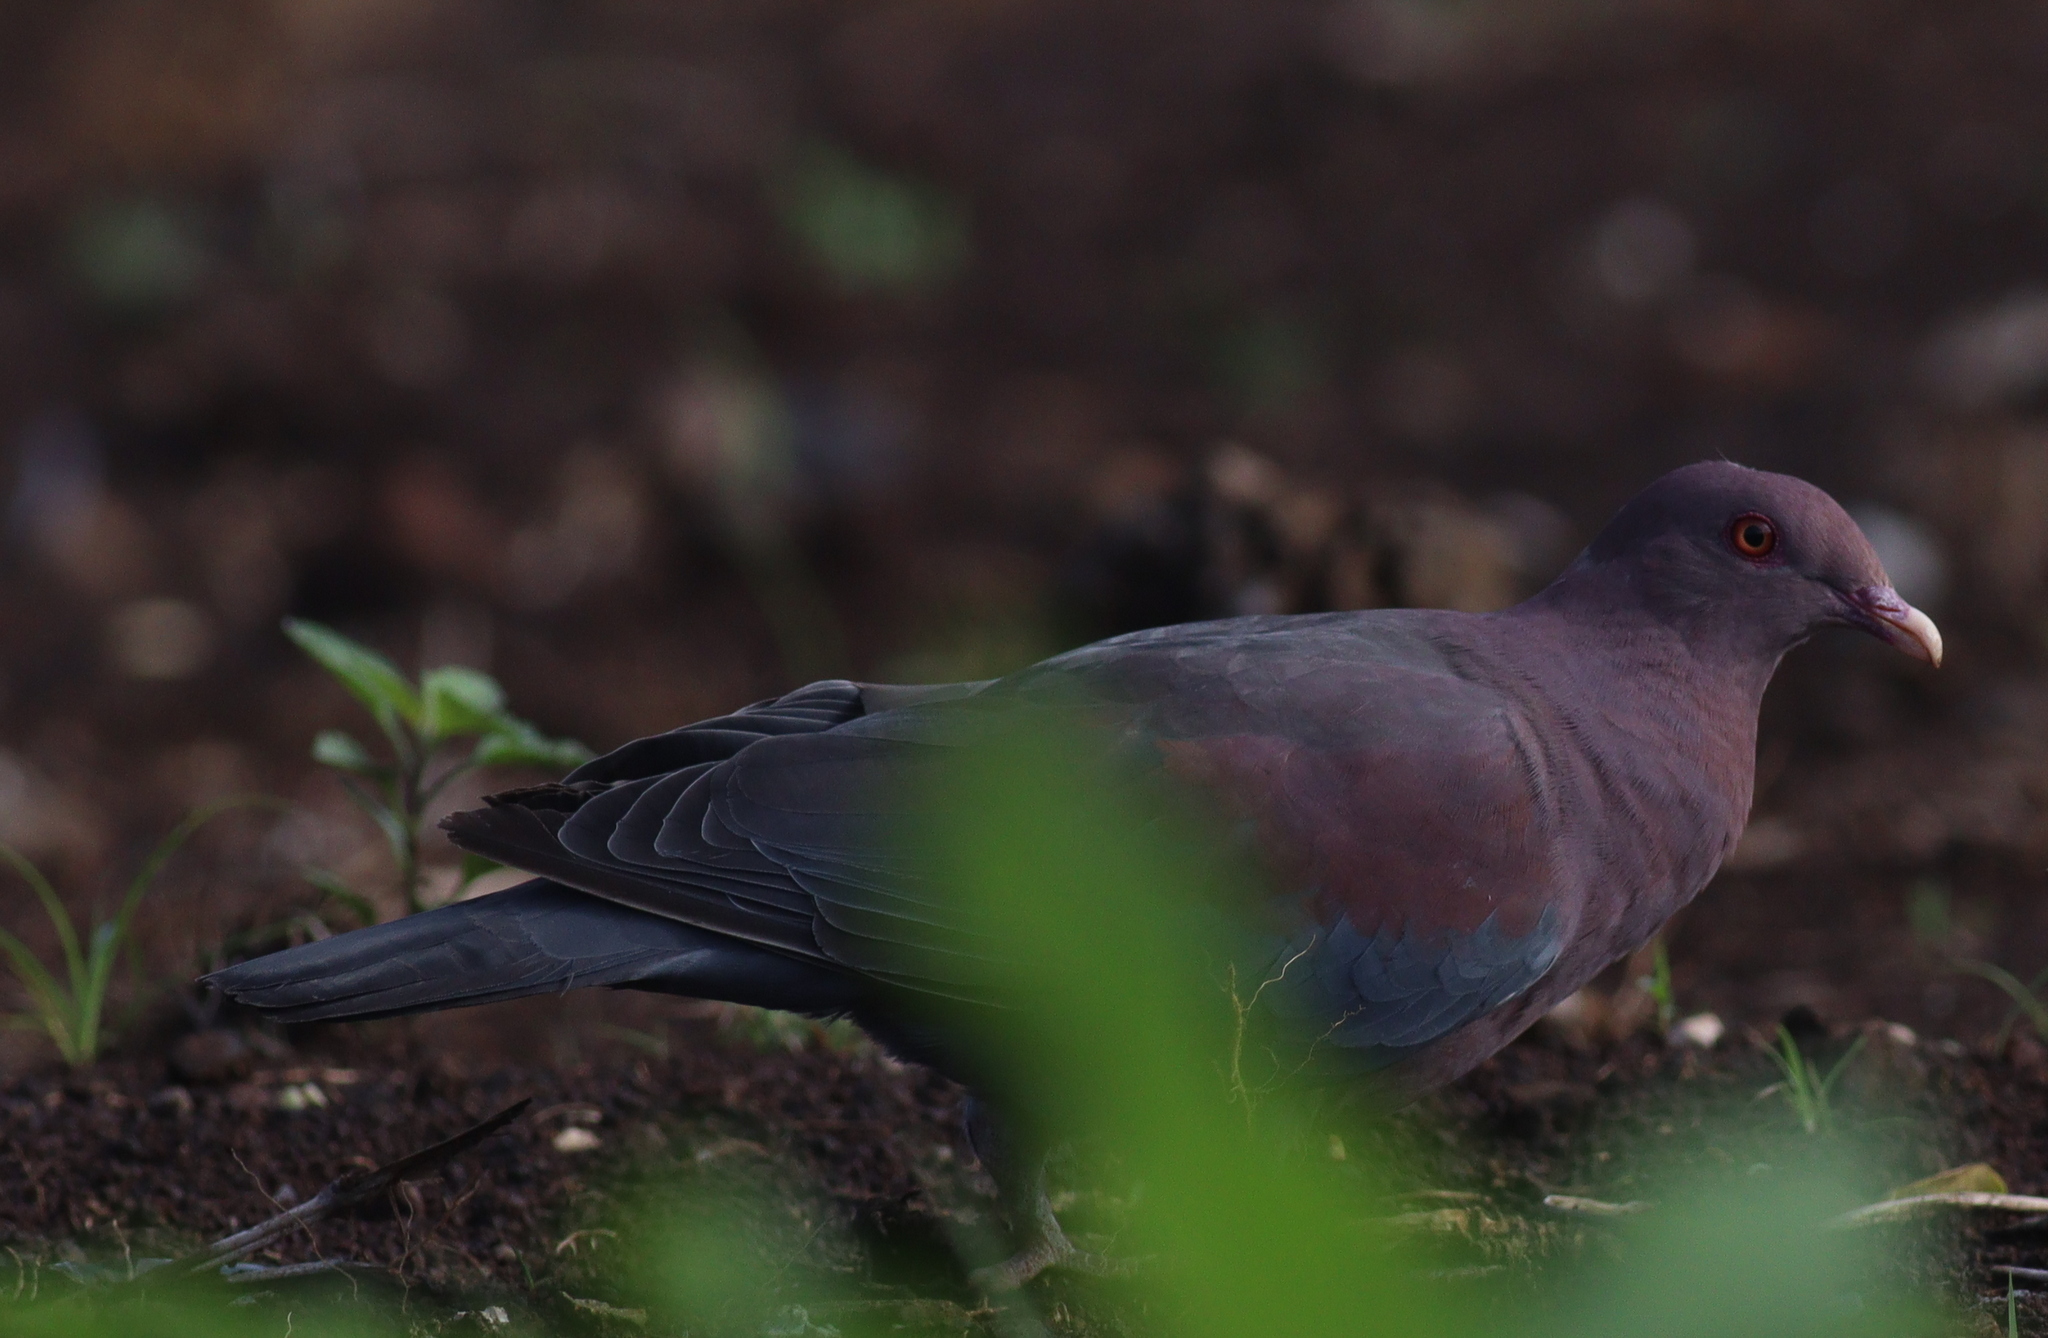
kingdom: Animalia
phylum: Chordata
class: Aves
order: Columbiformes
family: Columbidae
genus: Patagioenas
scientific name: Patagioenas flavirostris
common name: Red-billed pigeon
